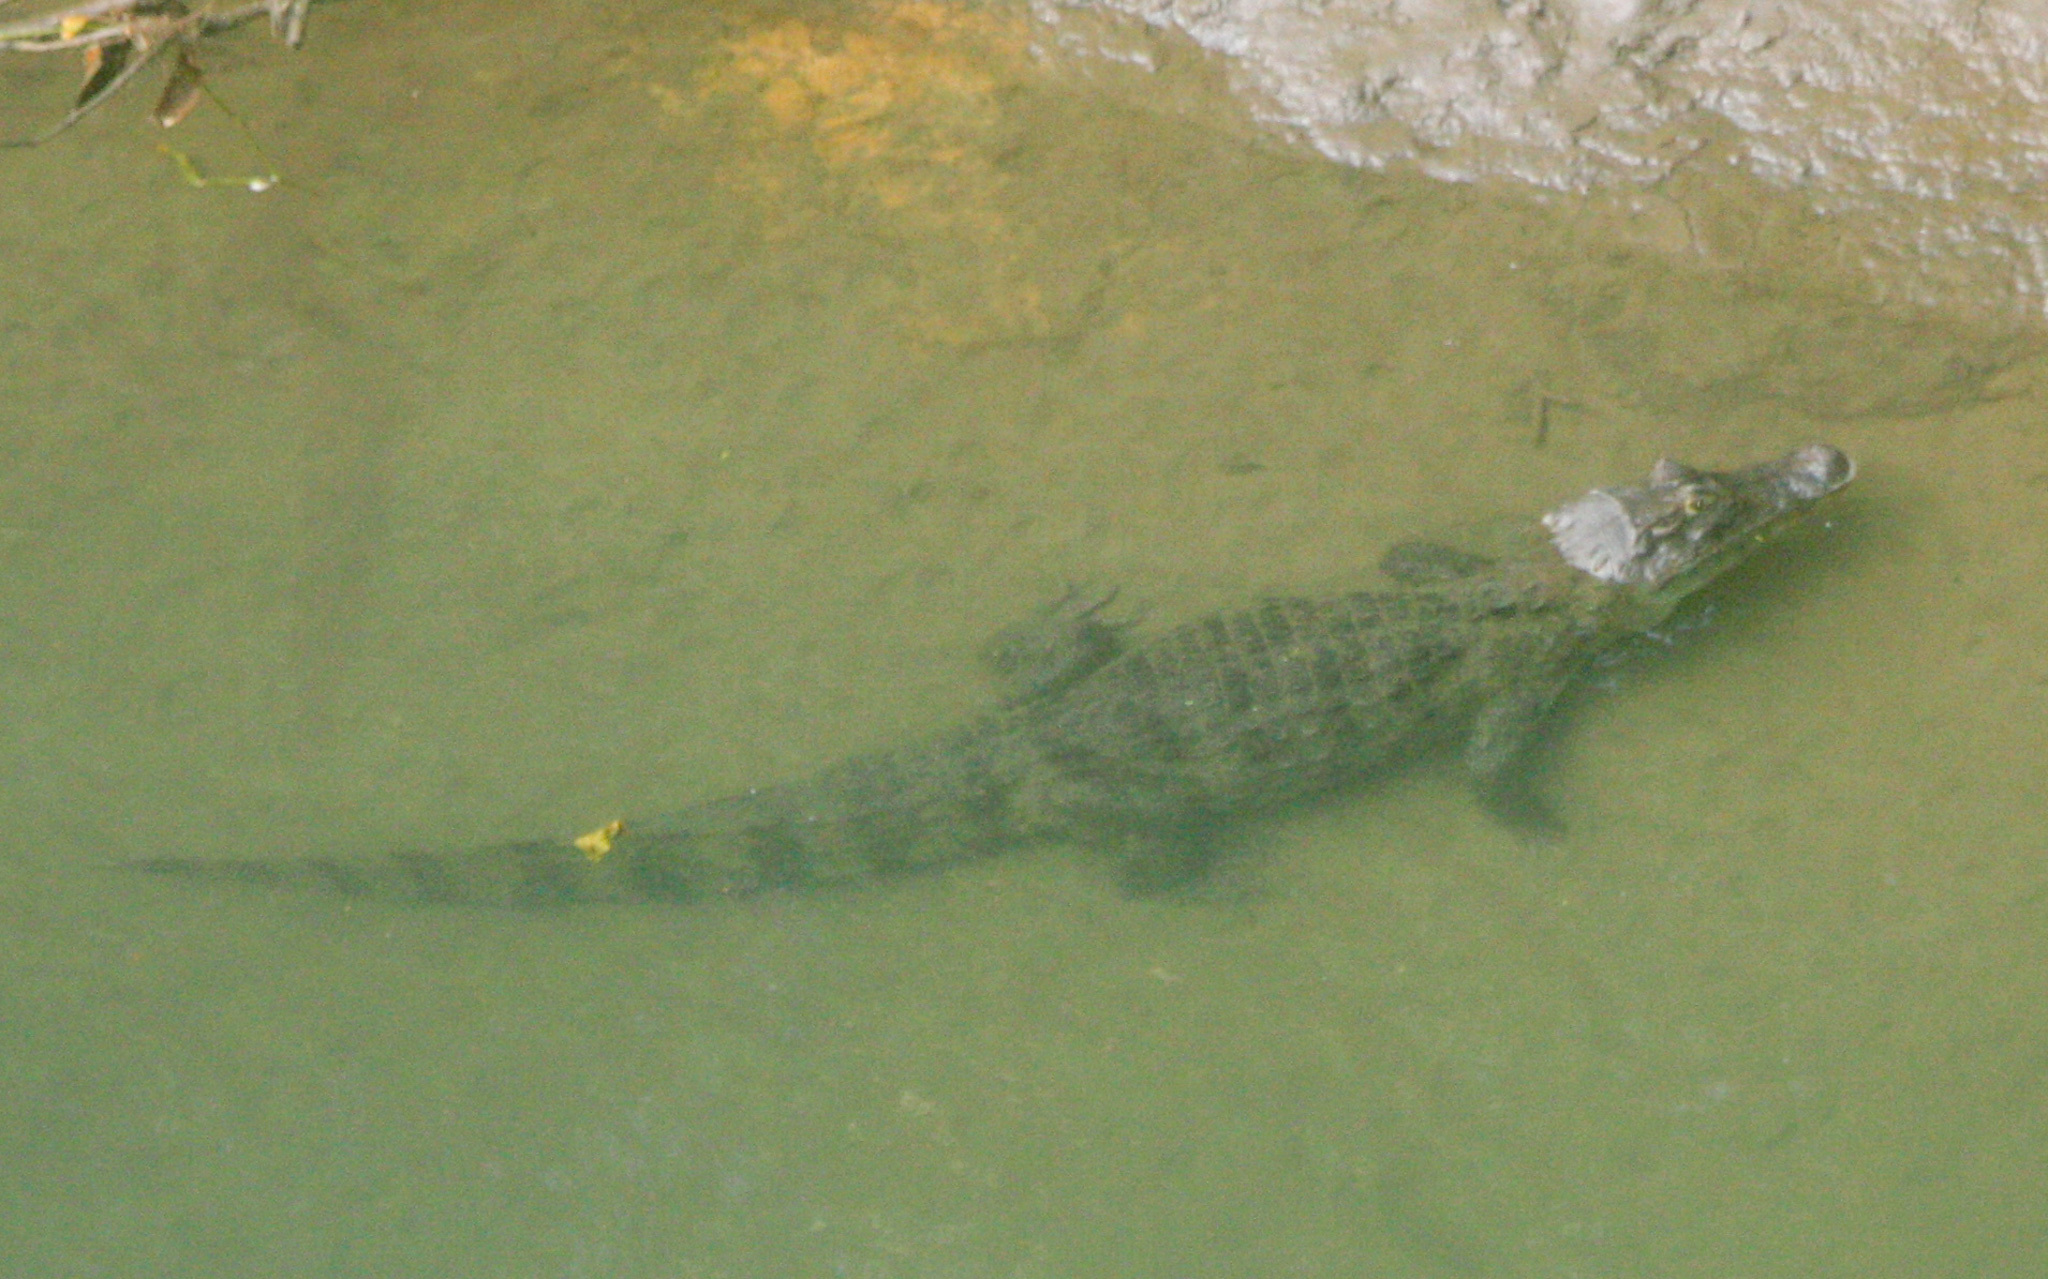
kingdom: Animalia
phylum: Chordata
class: Crocodylia
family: Alligatoridae
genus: Caiman
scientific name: Caiman crocodilus
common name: Common caiman
